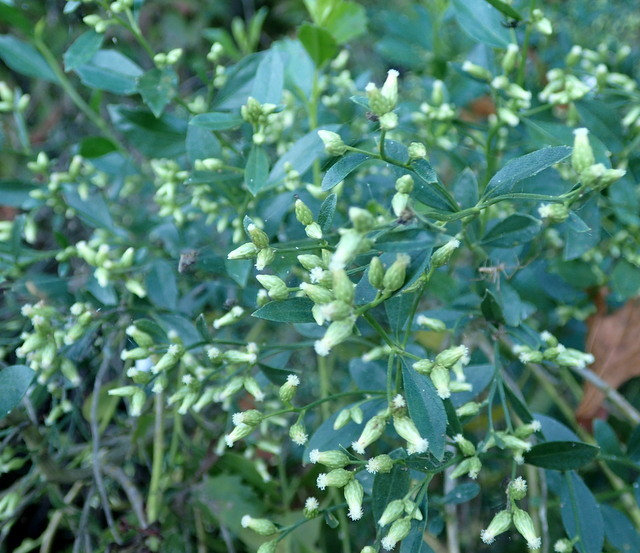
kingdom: Plantae
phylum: Tracheophyta
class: Magnoliopsida
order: Asterales
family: Asteraceae
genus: Baccharis
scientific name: Baccharis halimifolia
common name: Eastern baccharis
